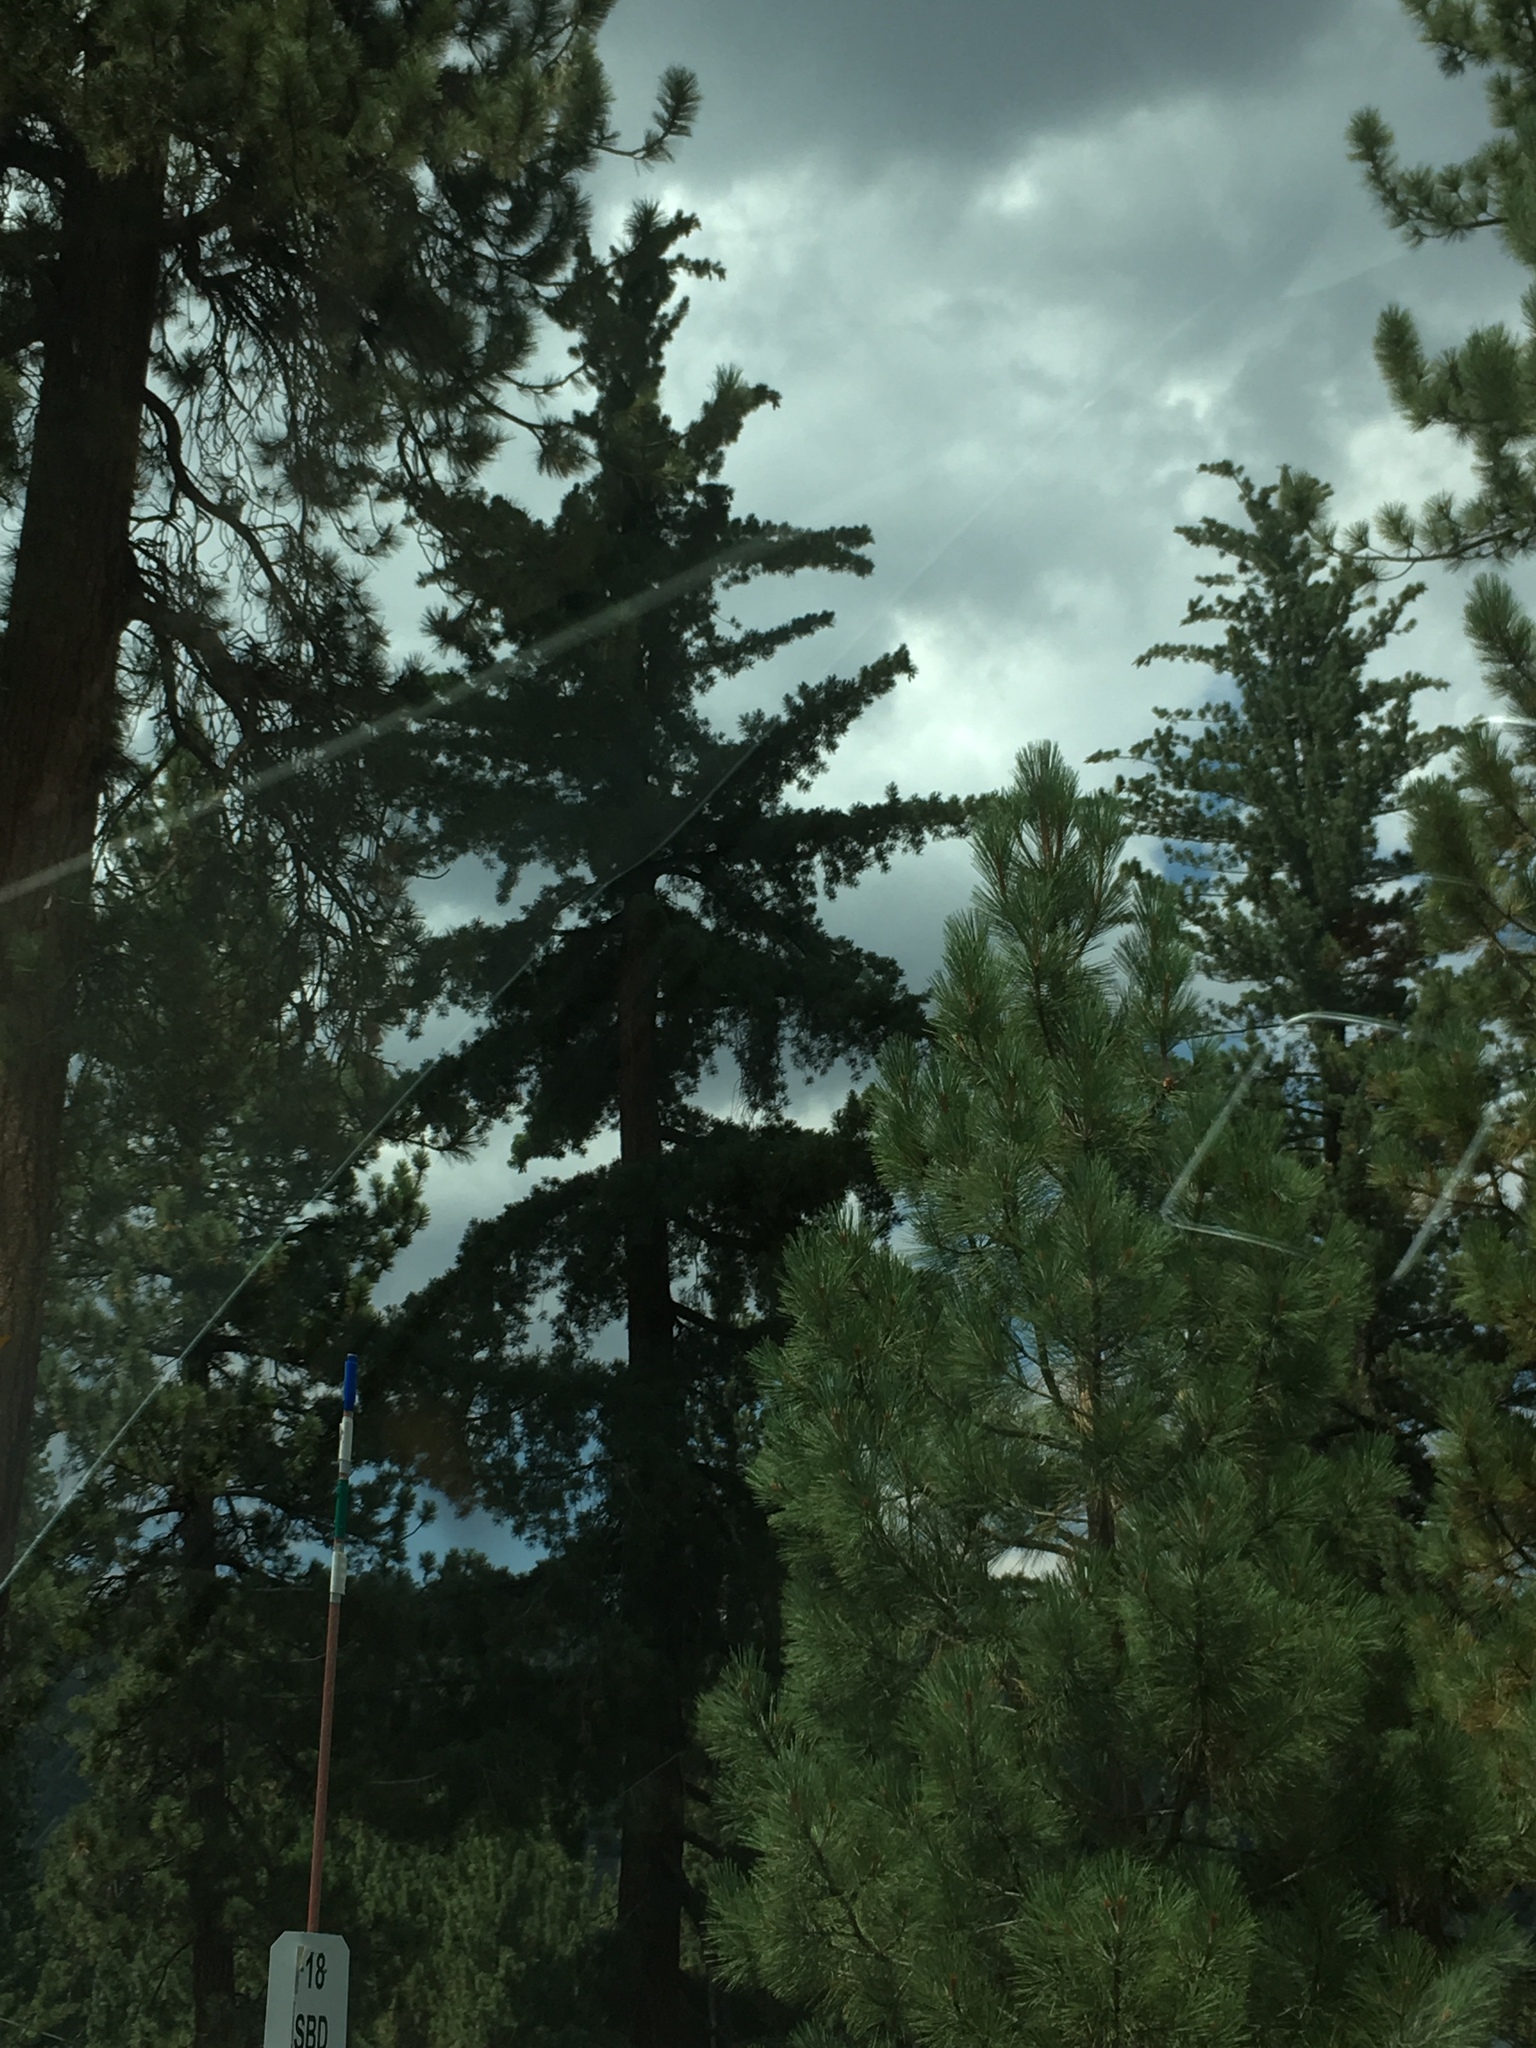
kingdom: Plantae
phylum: Tracheophyta
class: Pinopsida
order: Pinales
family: Pinaceae
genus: Pinus
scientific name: Pinus lambertiana
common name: Sugar pine
